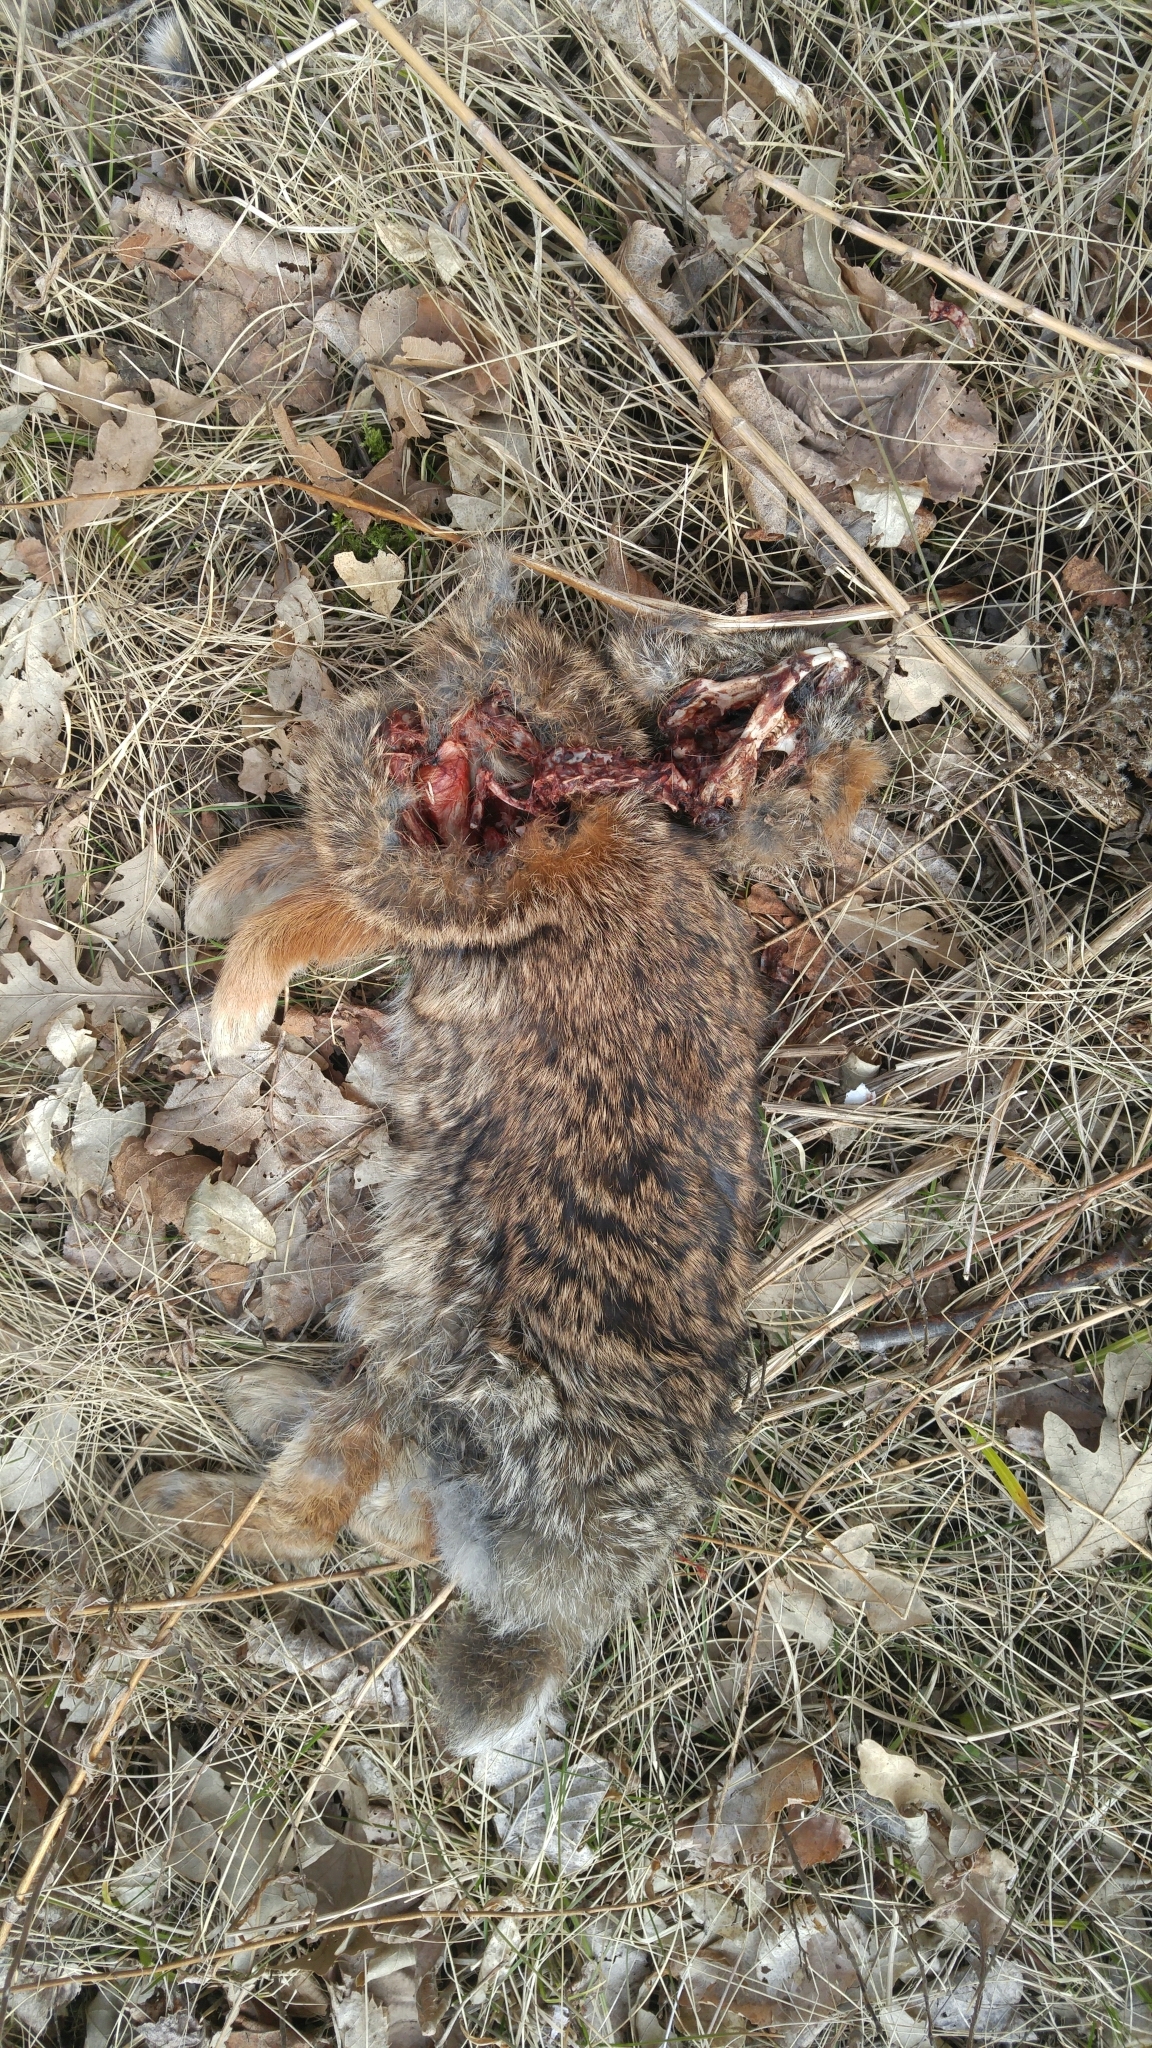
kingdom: Animalia
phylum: Chordata
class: Mammalia
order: Lagomorpha
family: Leporidae
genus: Sylvilagus
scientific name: Sylvilagus floridanus
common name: Eastern cottontail
